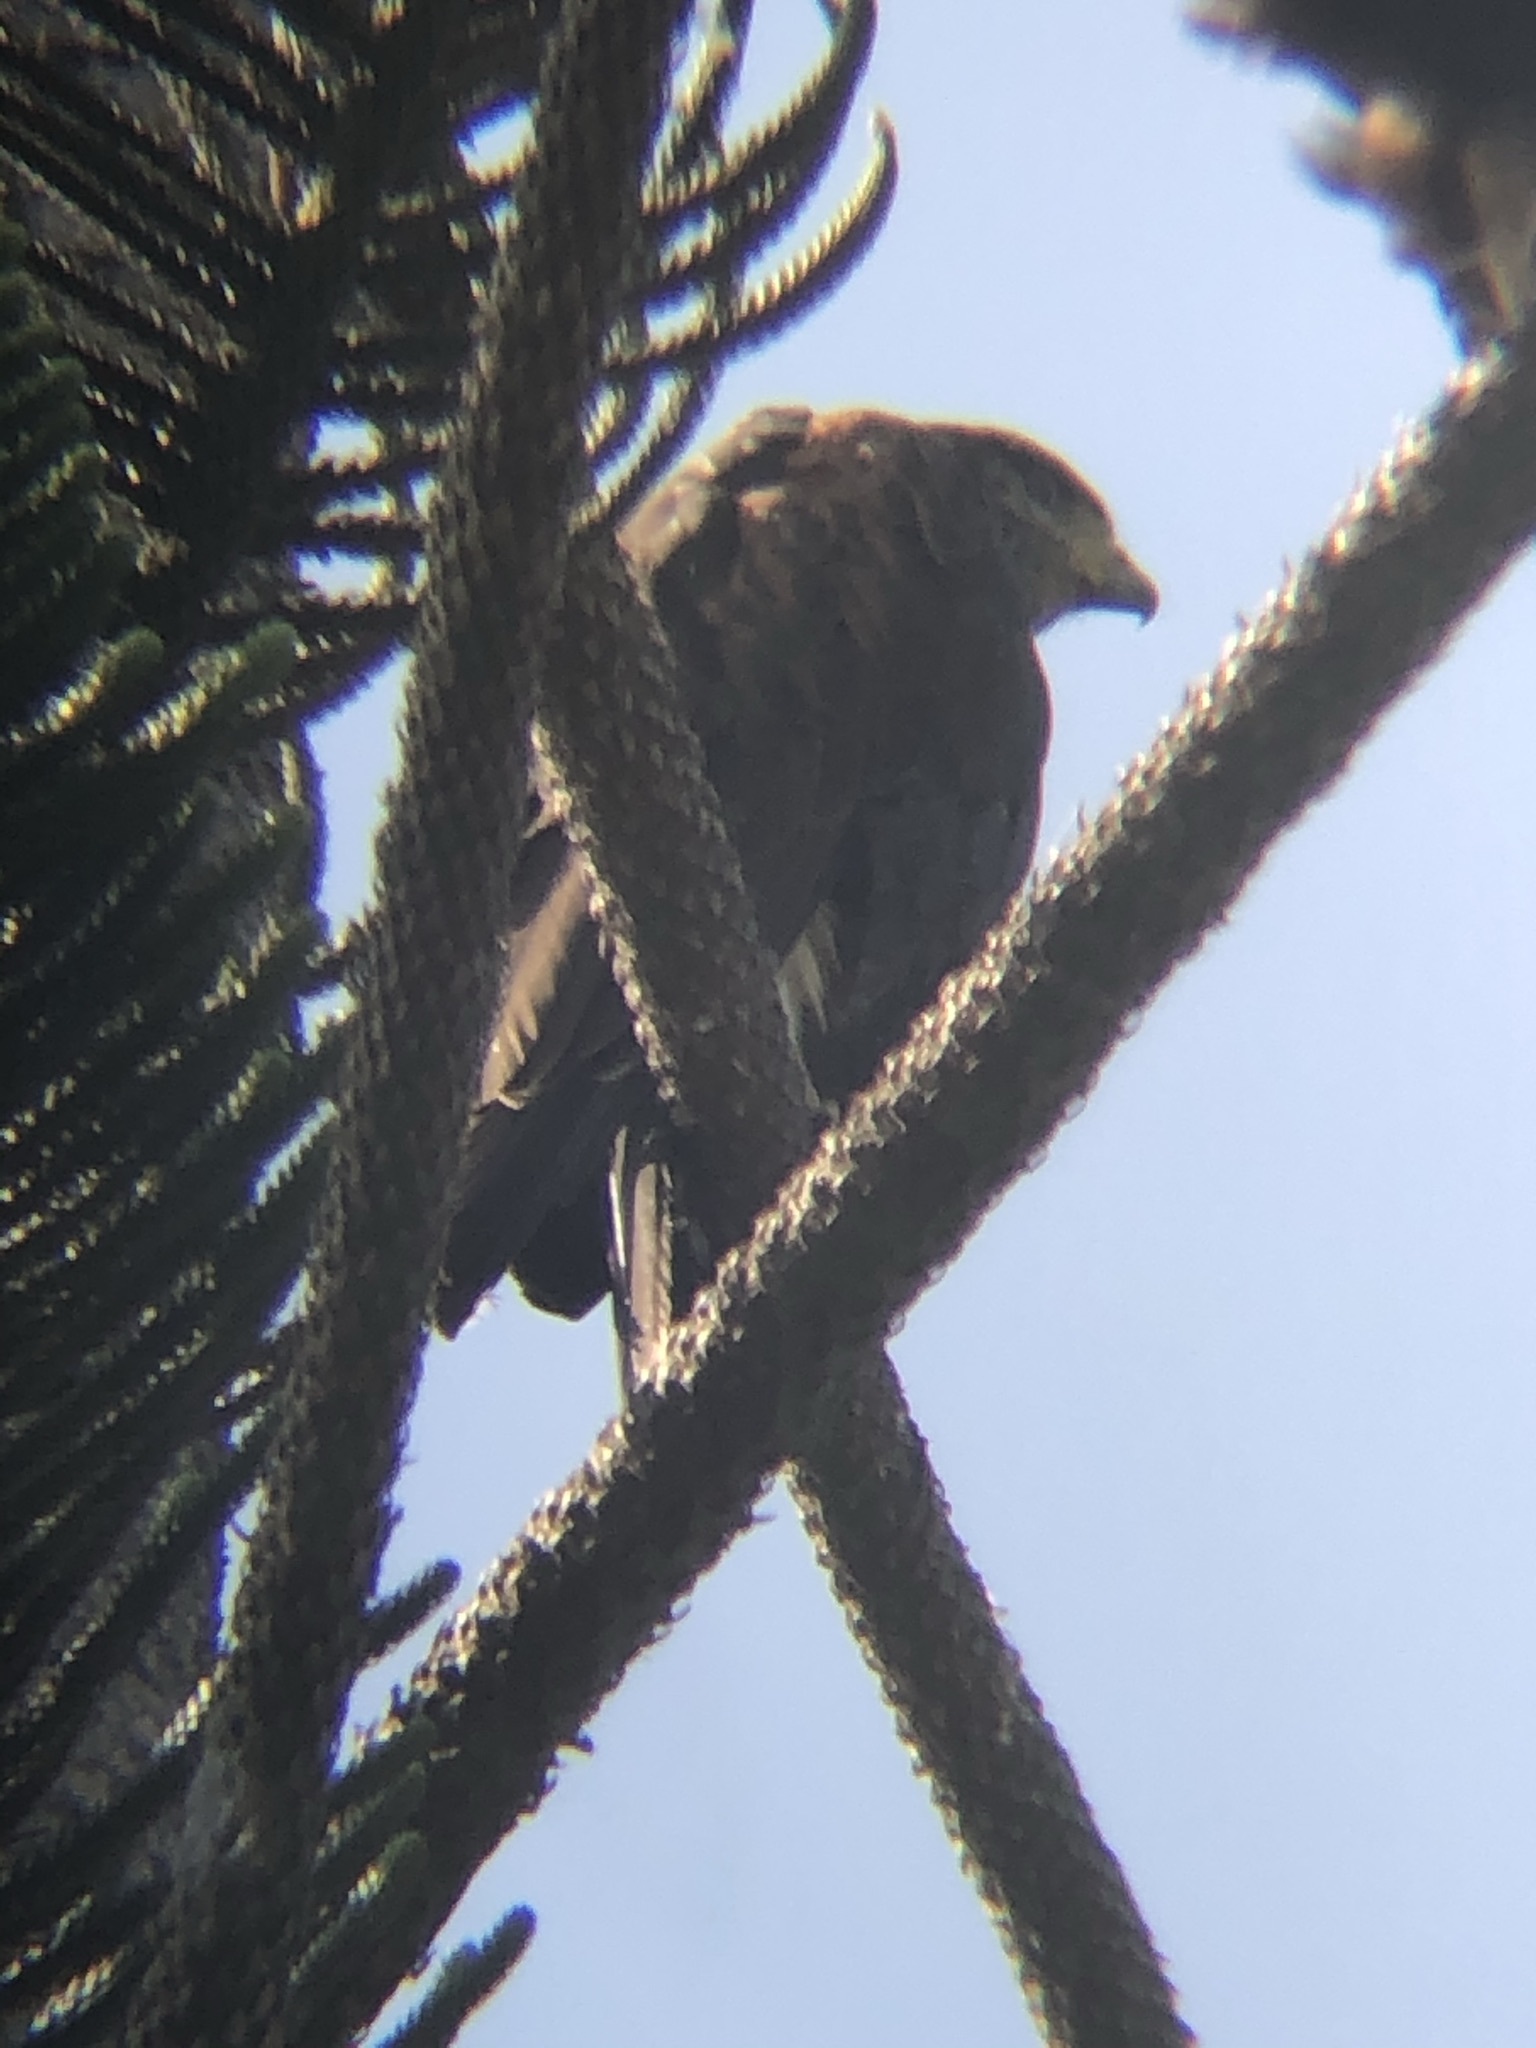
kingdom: Animalia
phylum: Chordata
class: Aves
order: Accipitriformes
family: Accipitridae
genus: Parabuteo
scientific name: Parabuteo unicinctus
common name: Harris's hawk
